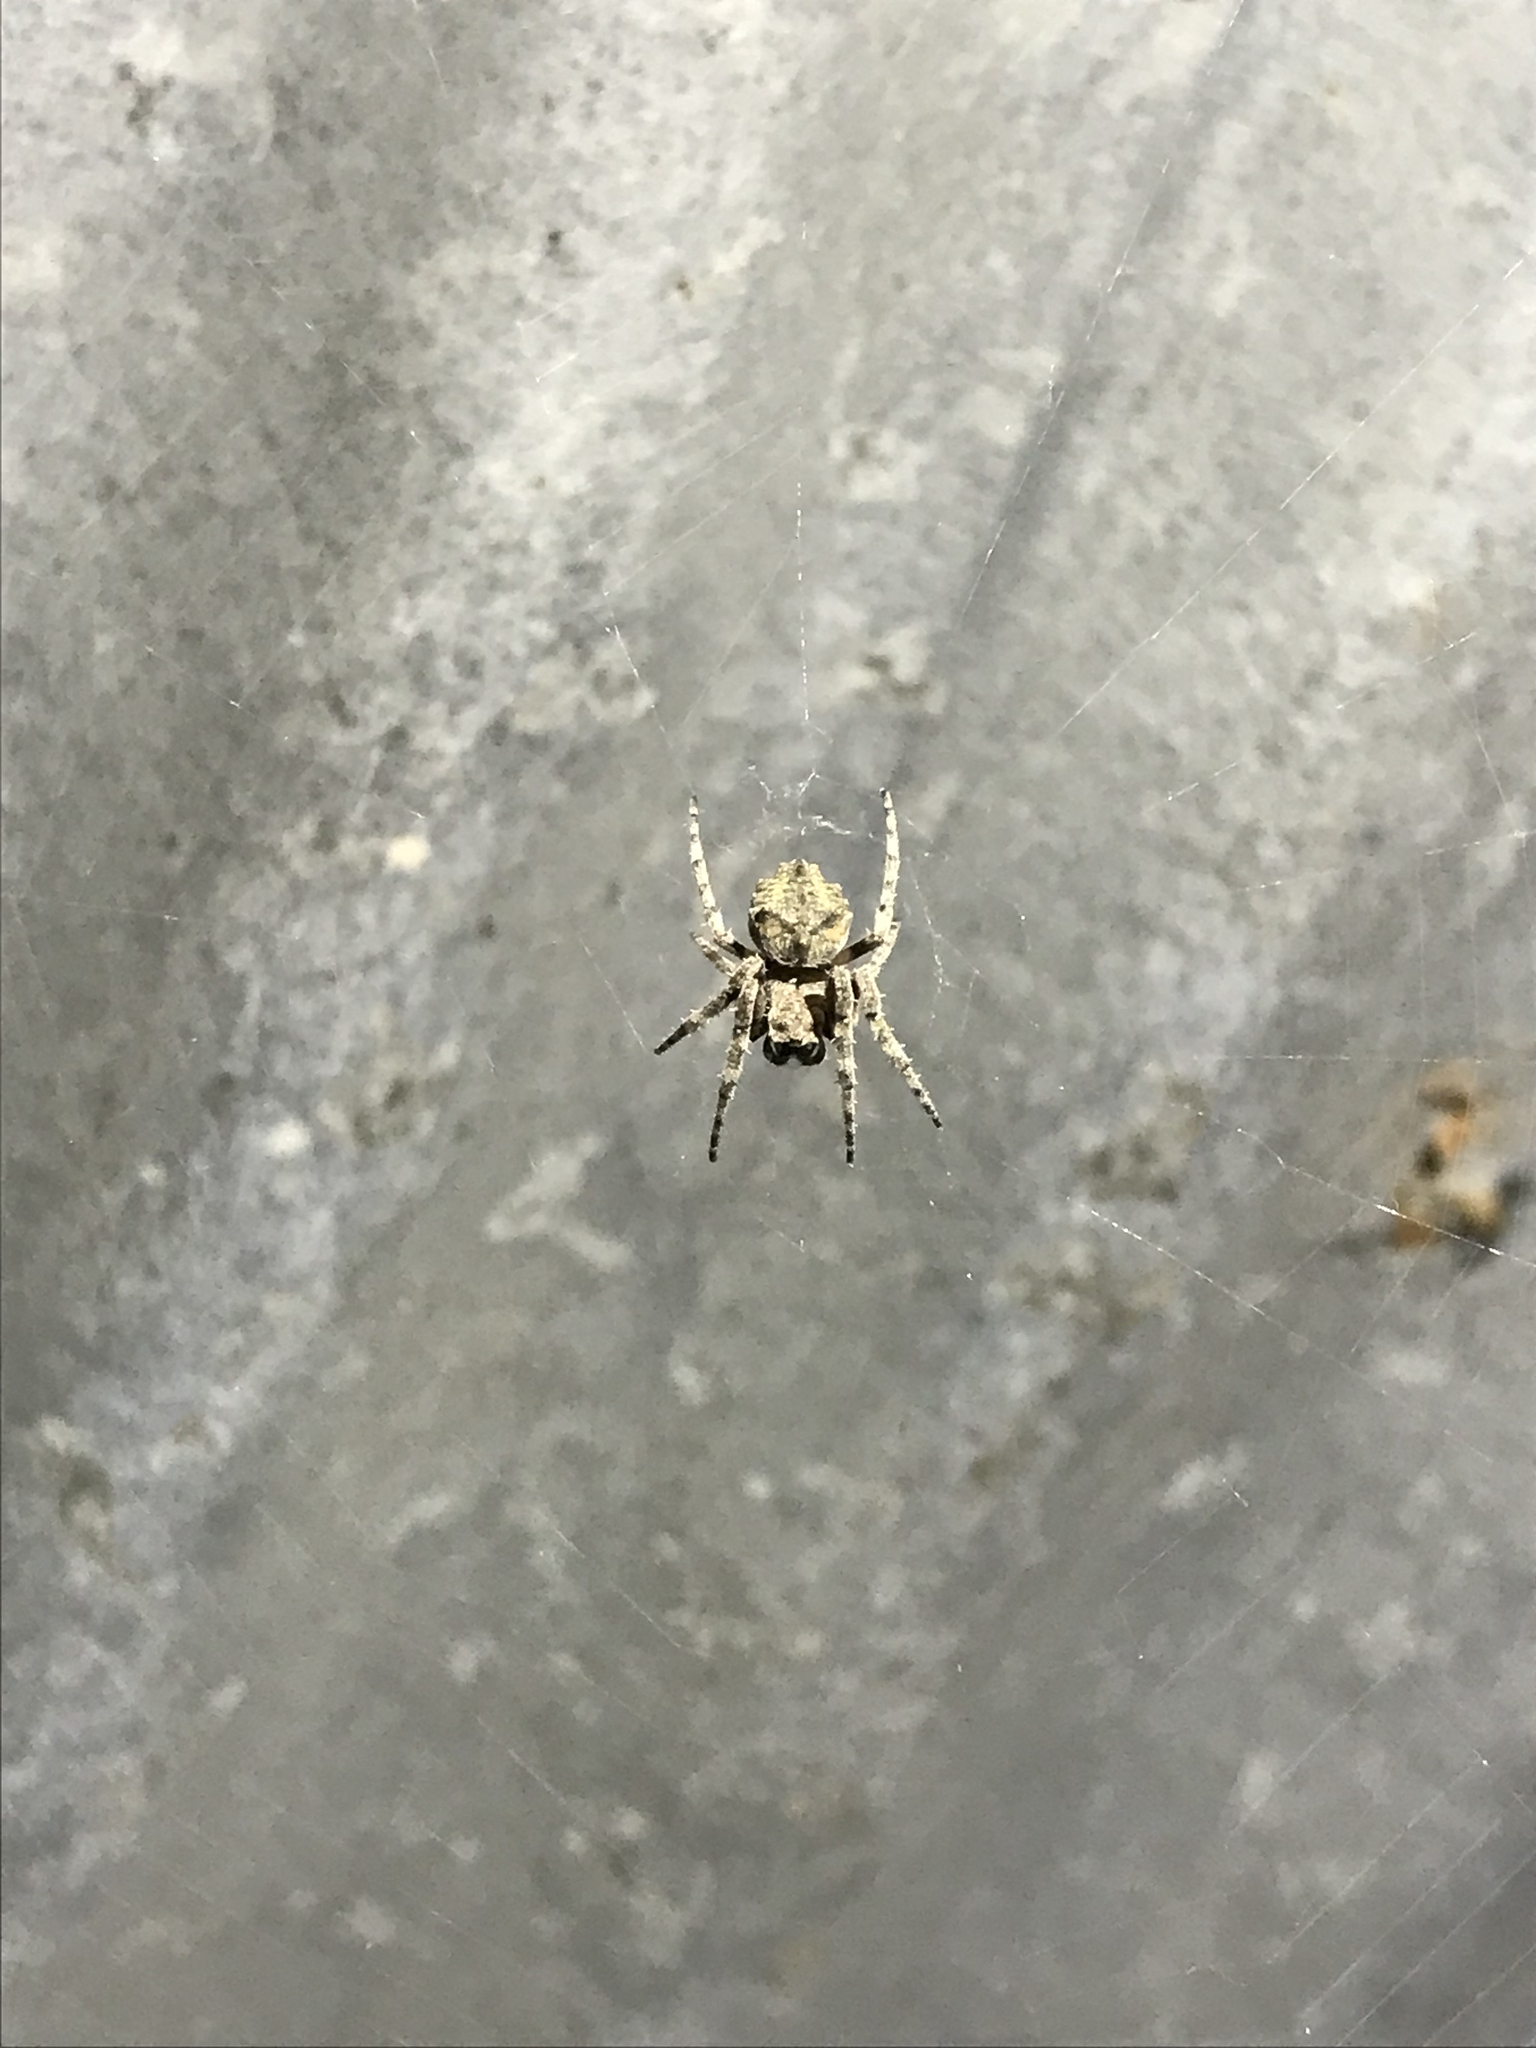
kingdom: Animalia
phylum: Arthropoda
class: Arachnida
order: Araneae
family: Araneidae
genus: Parawixia
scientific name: Parawixia audax
